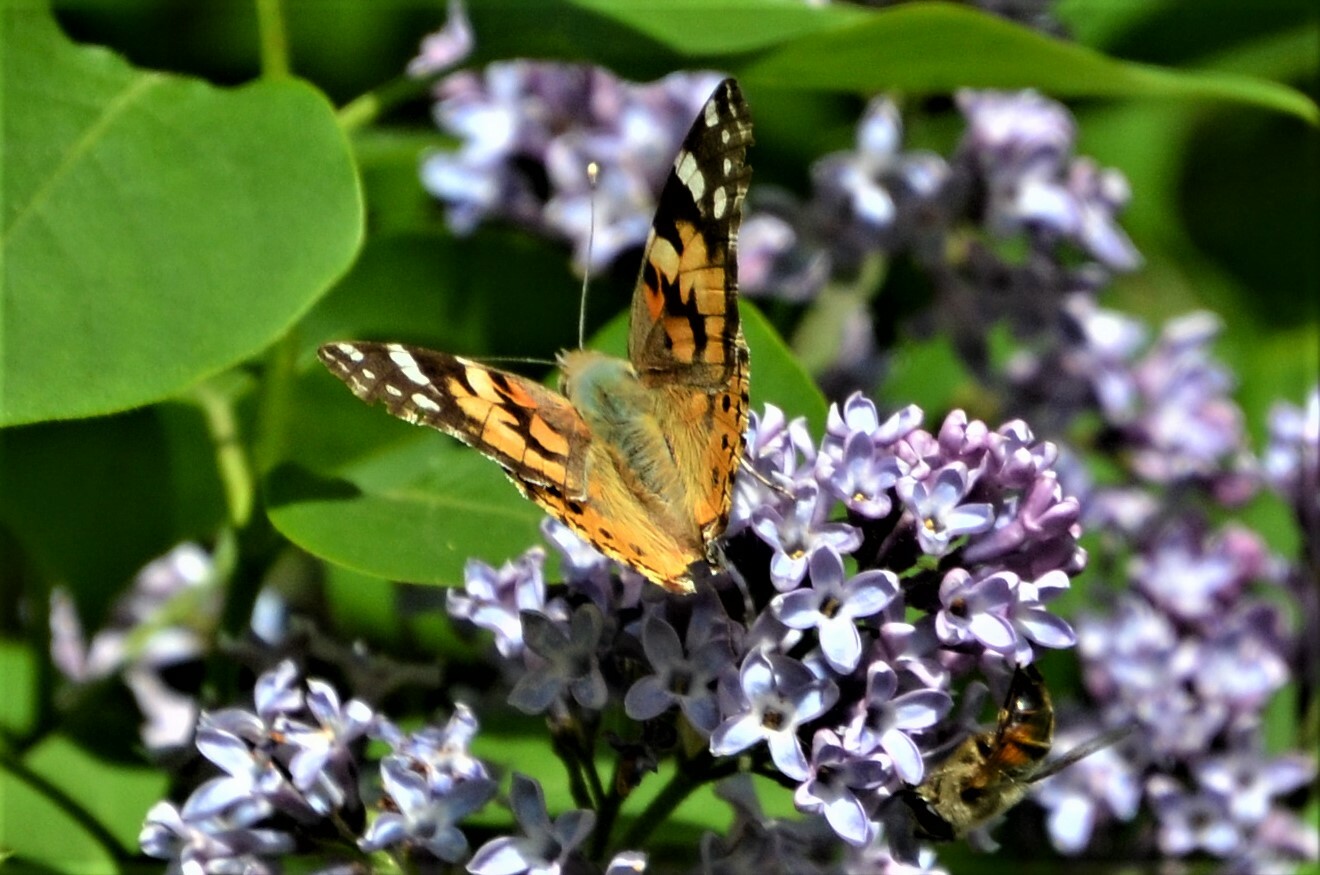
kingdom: Animalia
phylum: Arthropoda
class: Insecta
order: Lepidoptera
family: Nymphalidae
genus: Vanessa
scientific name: Vanessa cardui
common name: Painted lady
